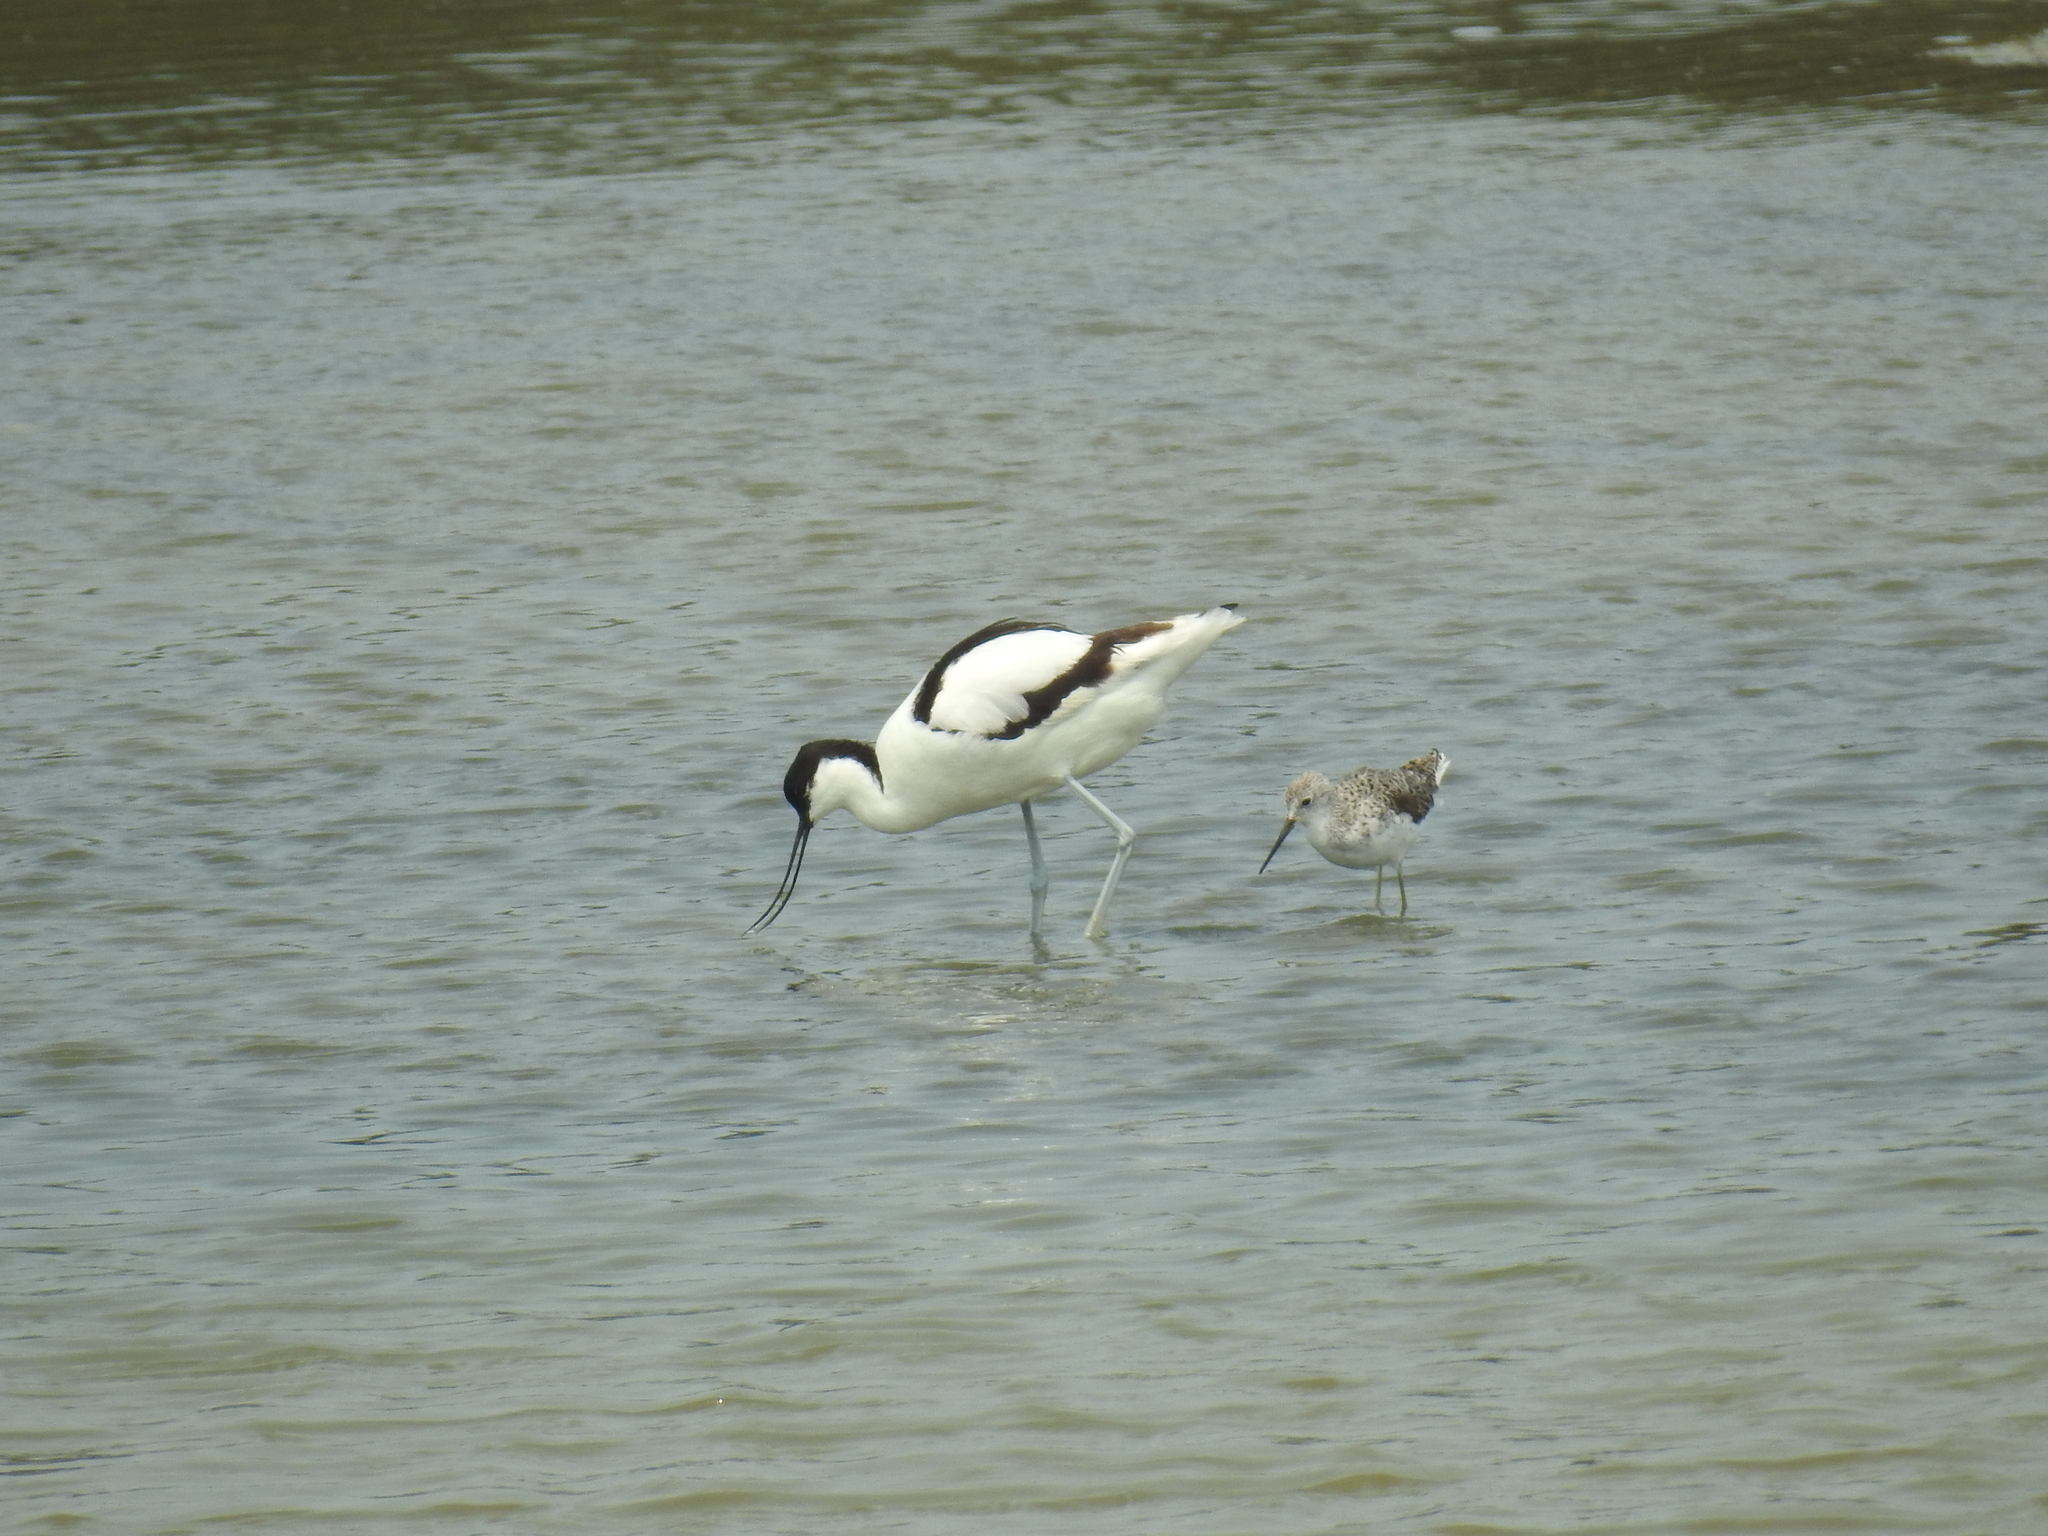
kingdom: Animalia
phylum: Chordata
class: Aves
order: Charadriiformes
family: Recurvirostridae
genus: Recurvirostra
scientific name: Recurvirostra avosetta
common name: Pied avocet
